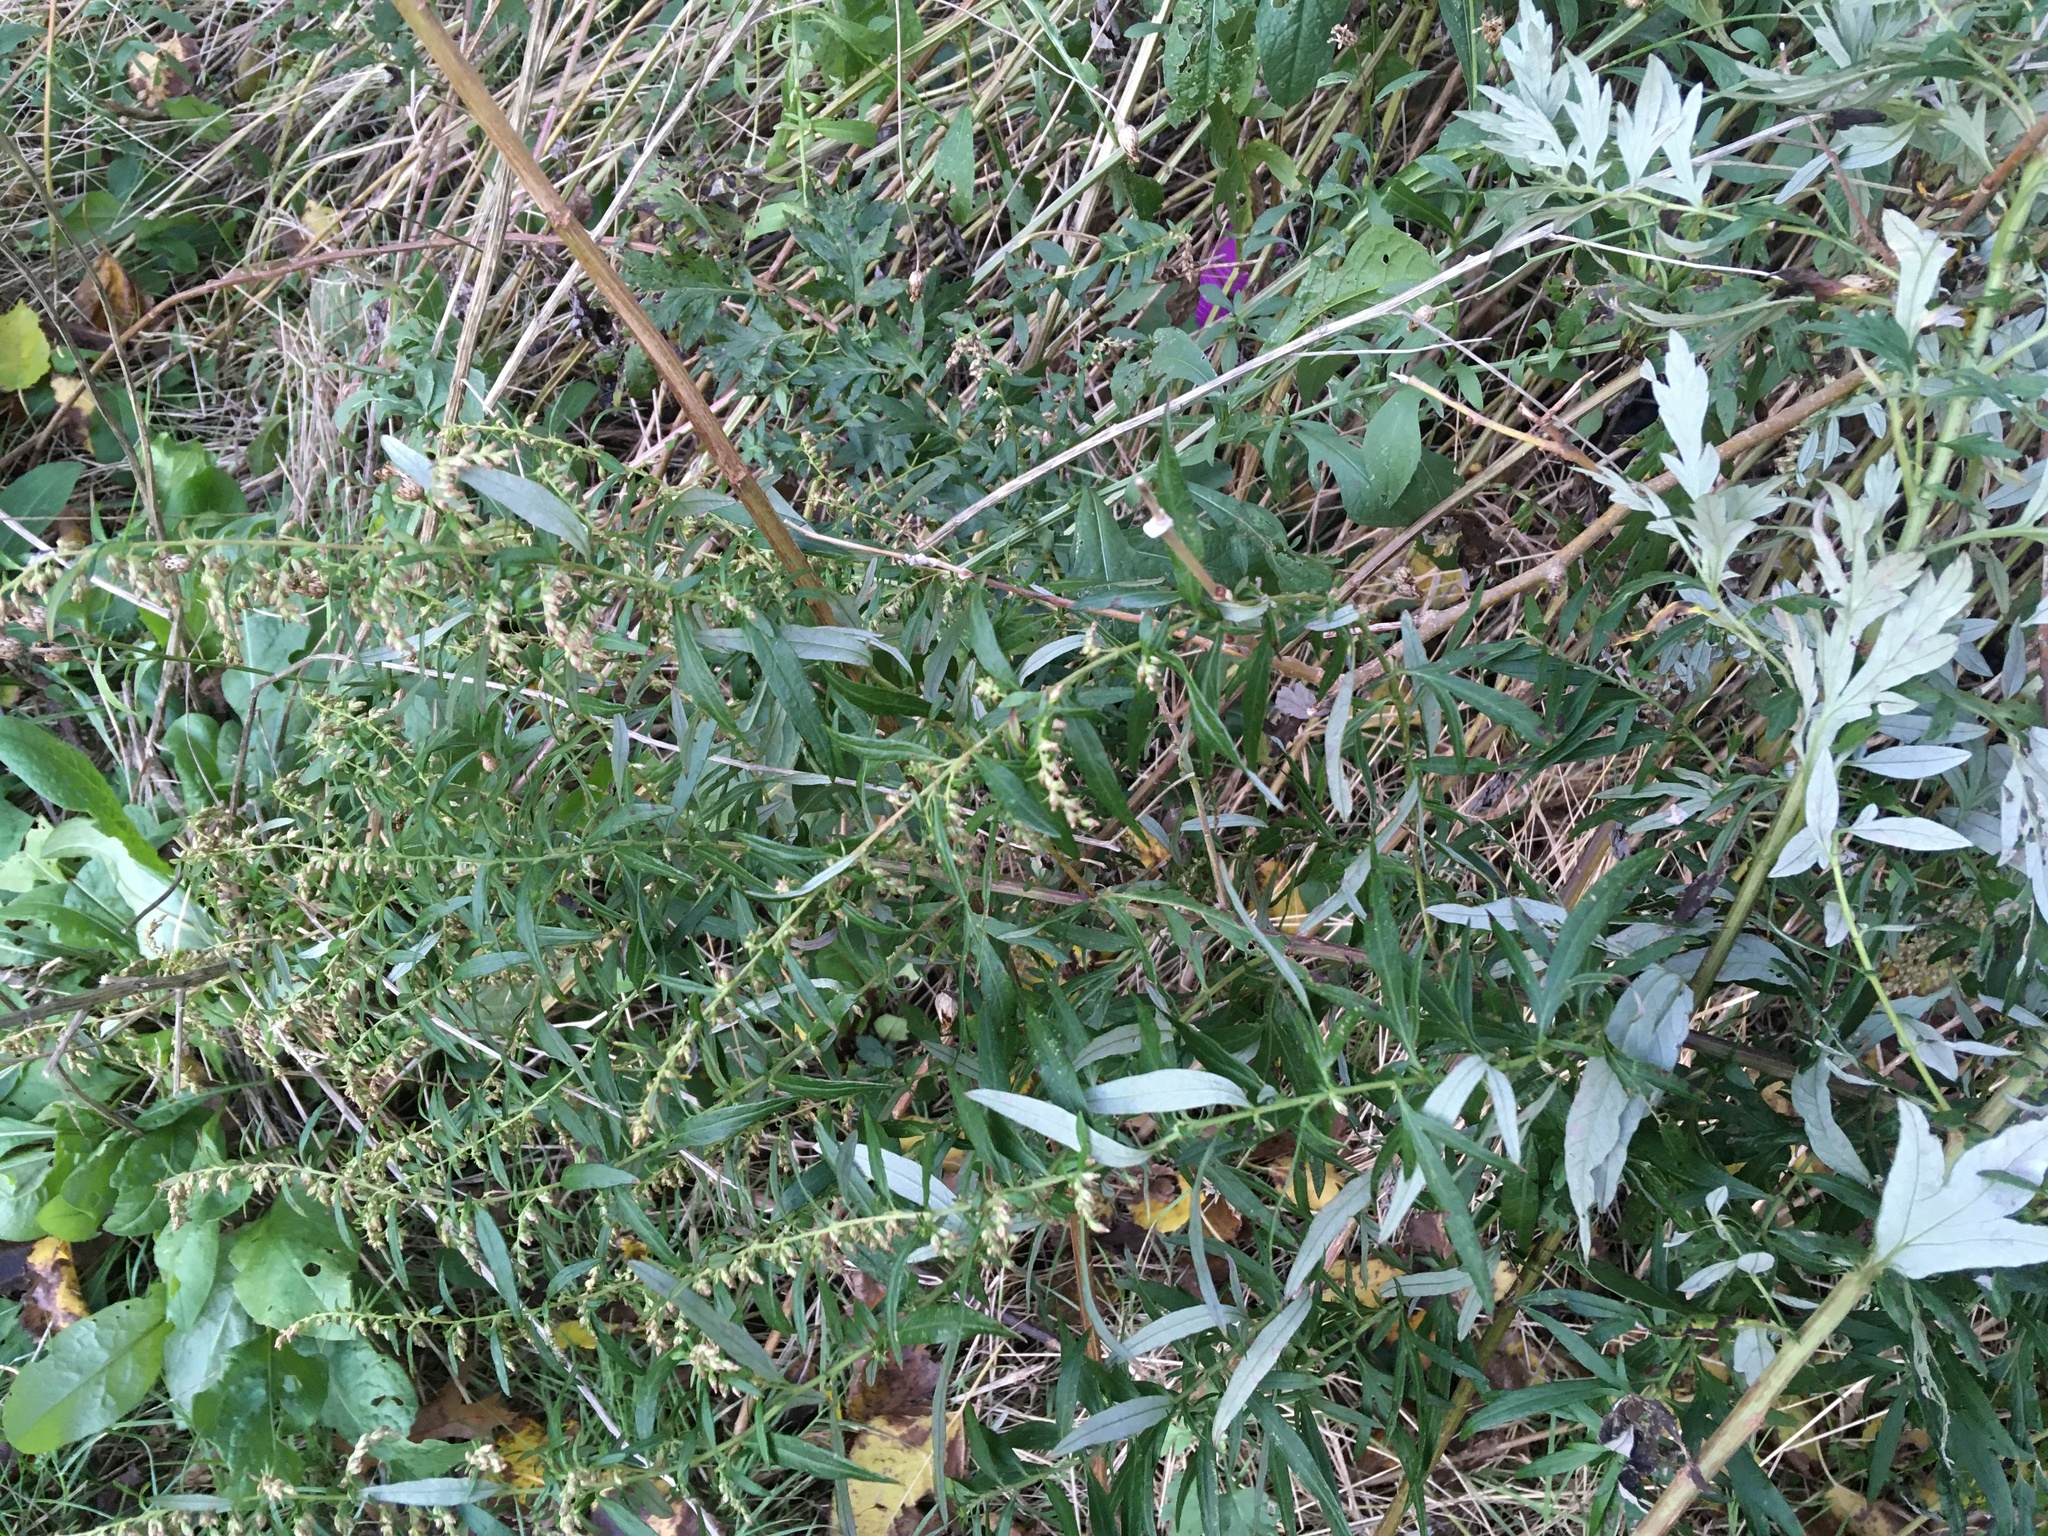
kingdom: Plantae
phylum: Tracheophyta
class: Magnoliopsida
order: Asterales
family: Asteraceae
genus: Artemisia
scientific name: Artemisia vulgaris
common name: Mugwort
